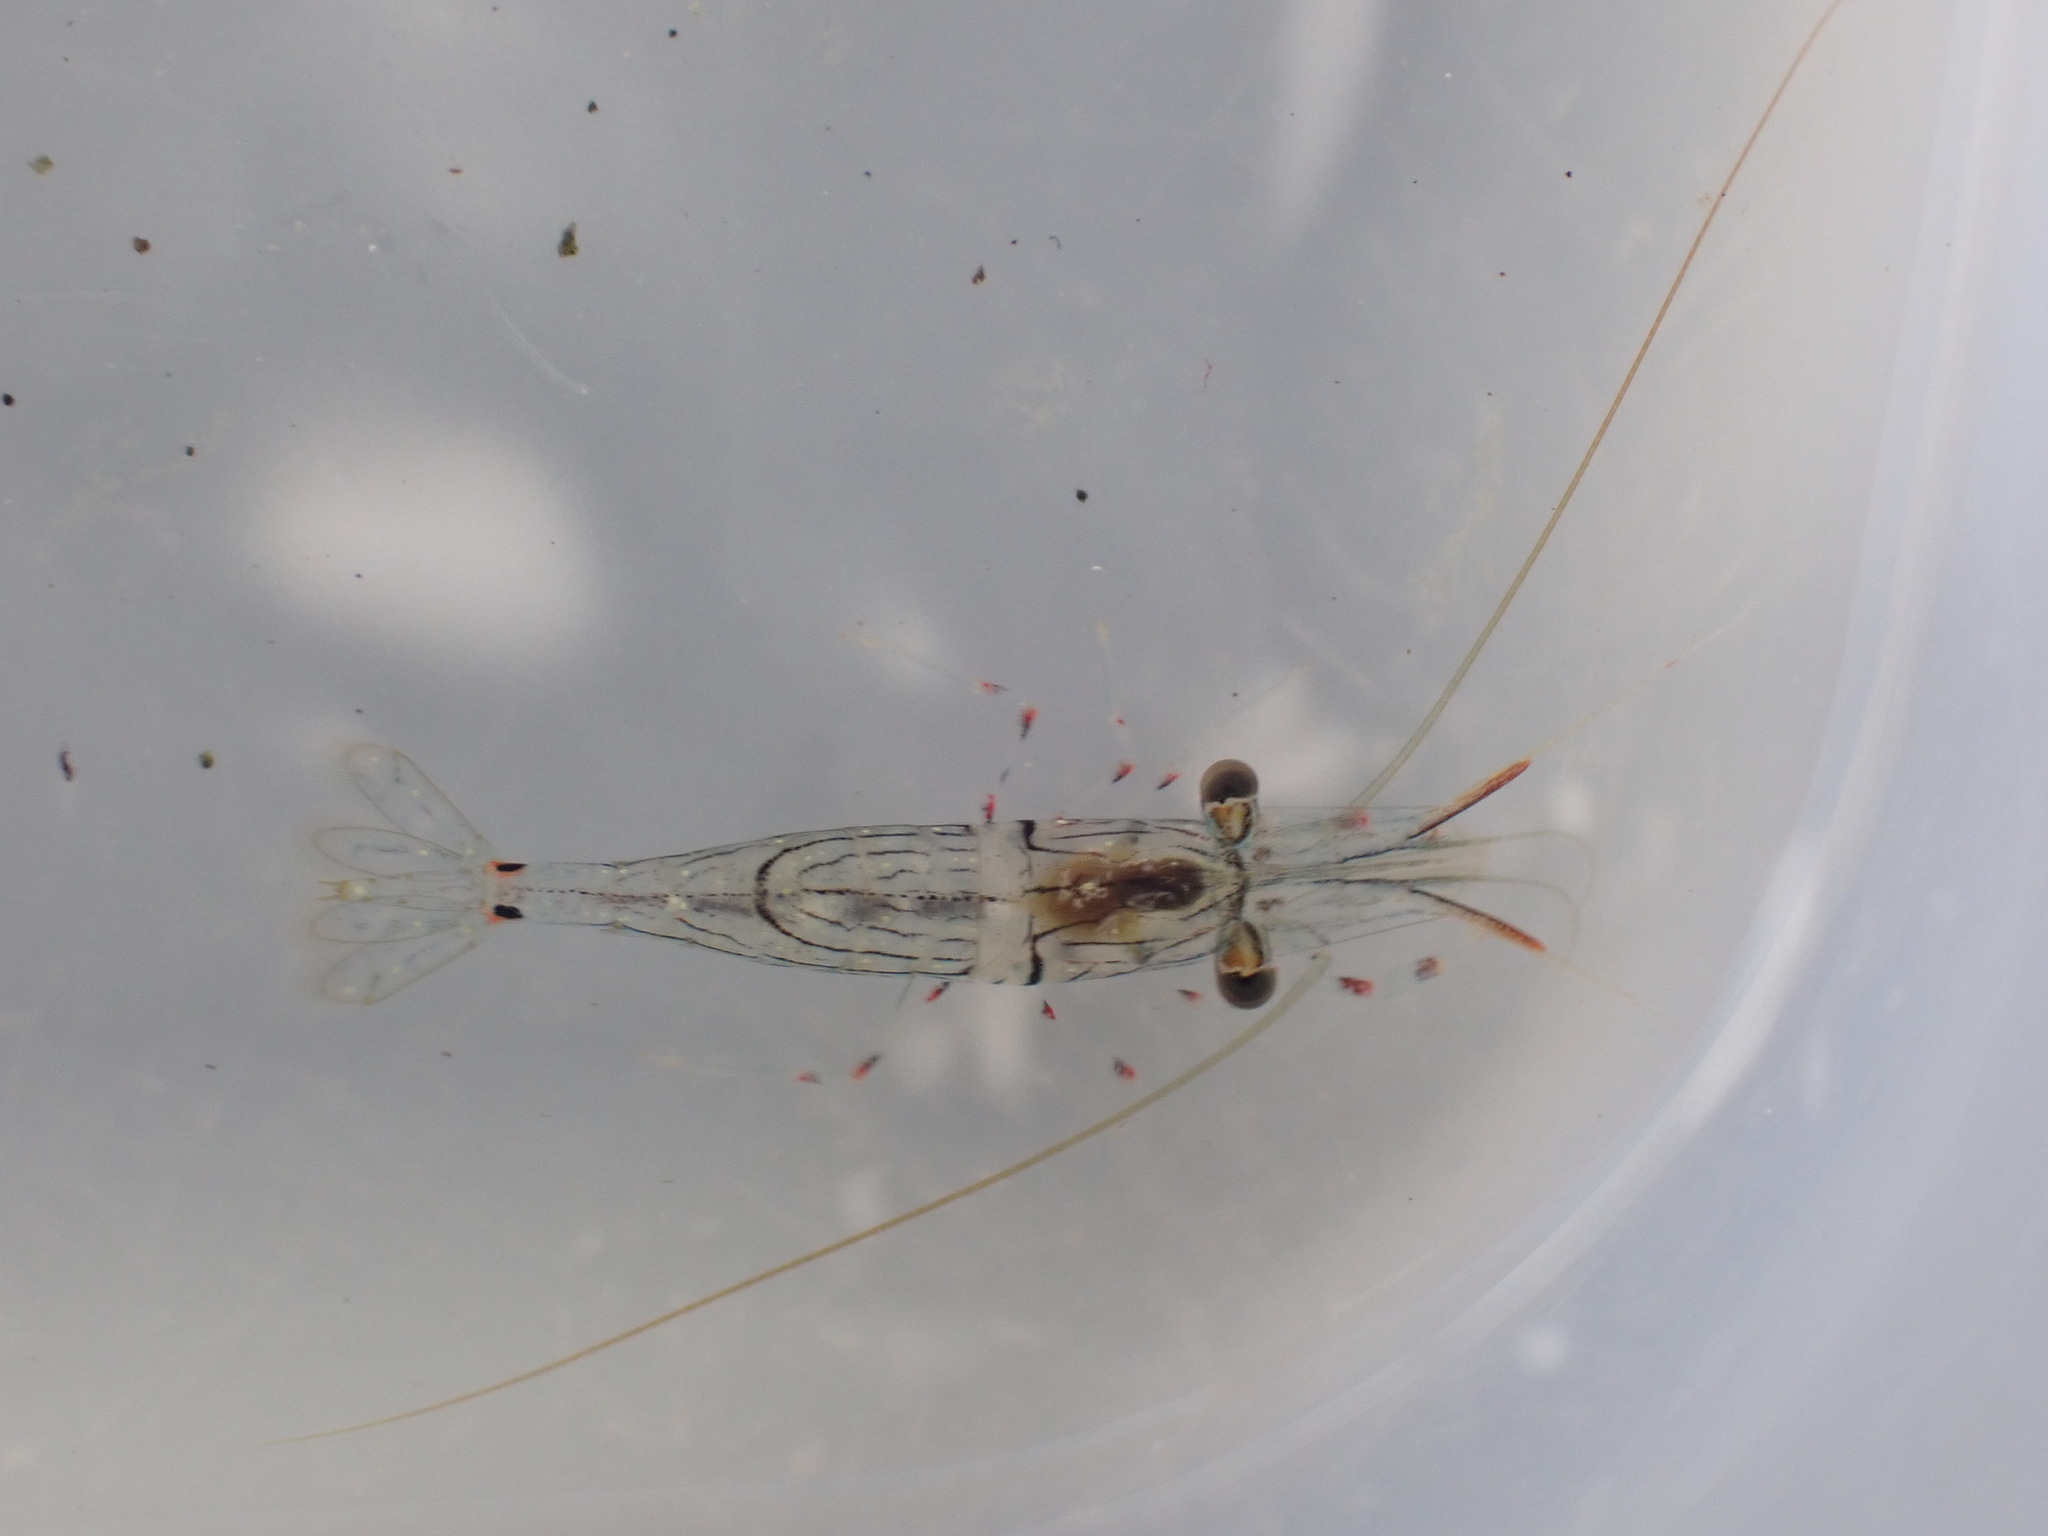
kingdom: Animalia
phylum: Arthropoda
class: Malacostraca
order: Decapoda
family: Palaemonidae
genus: Palaemon
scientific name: Palaemon affinis
